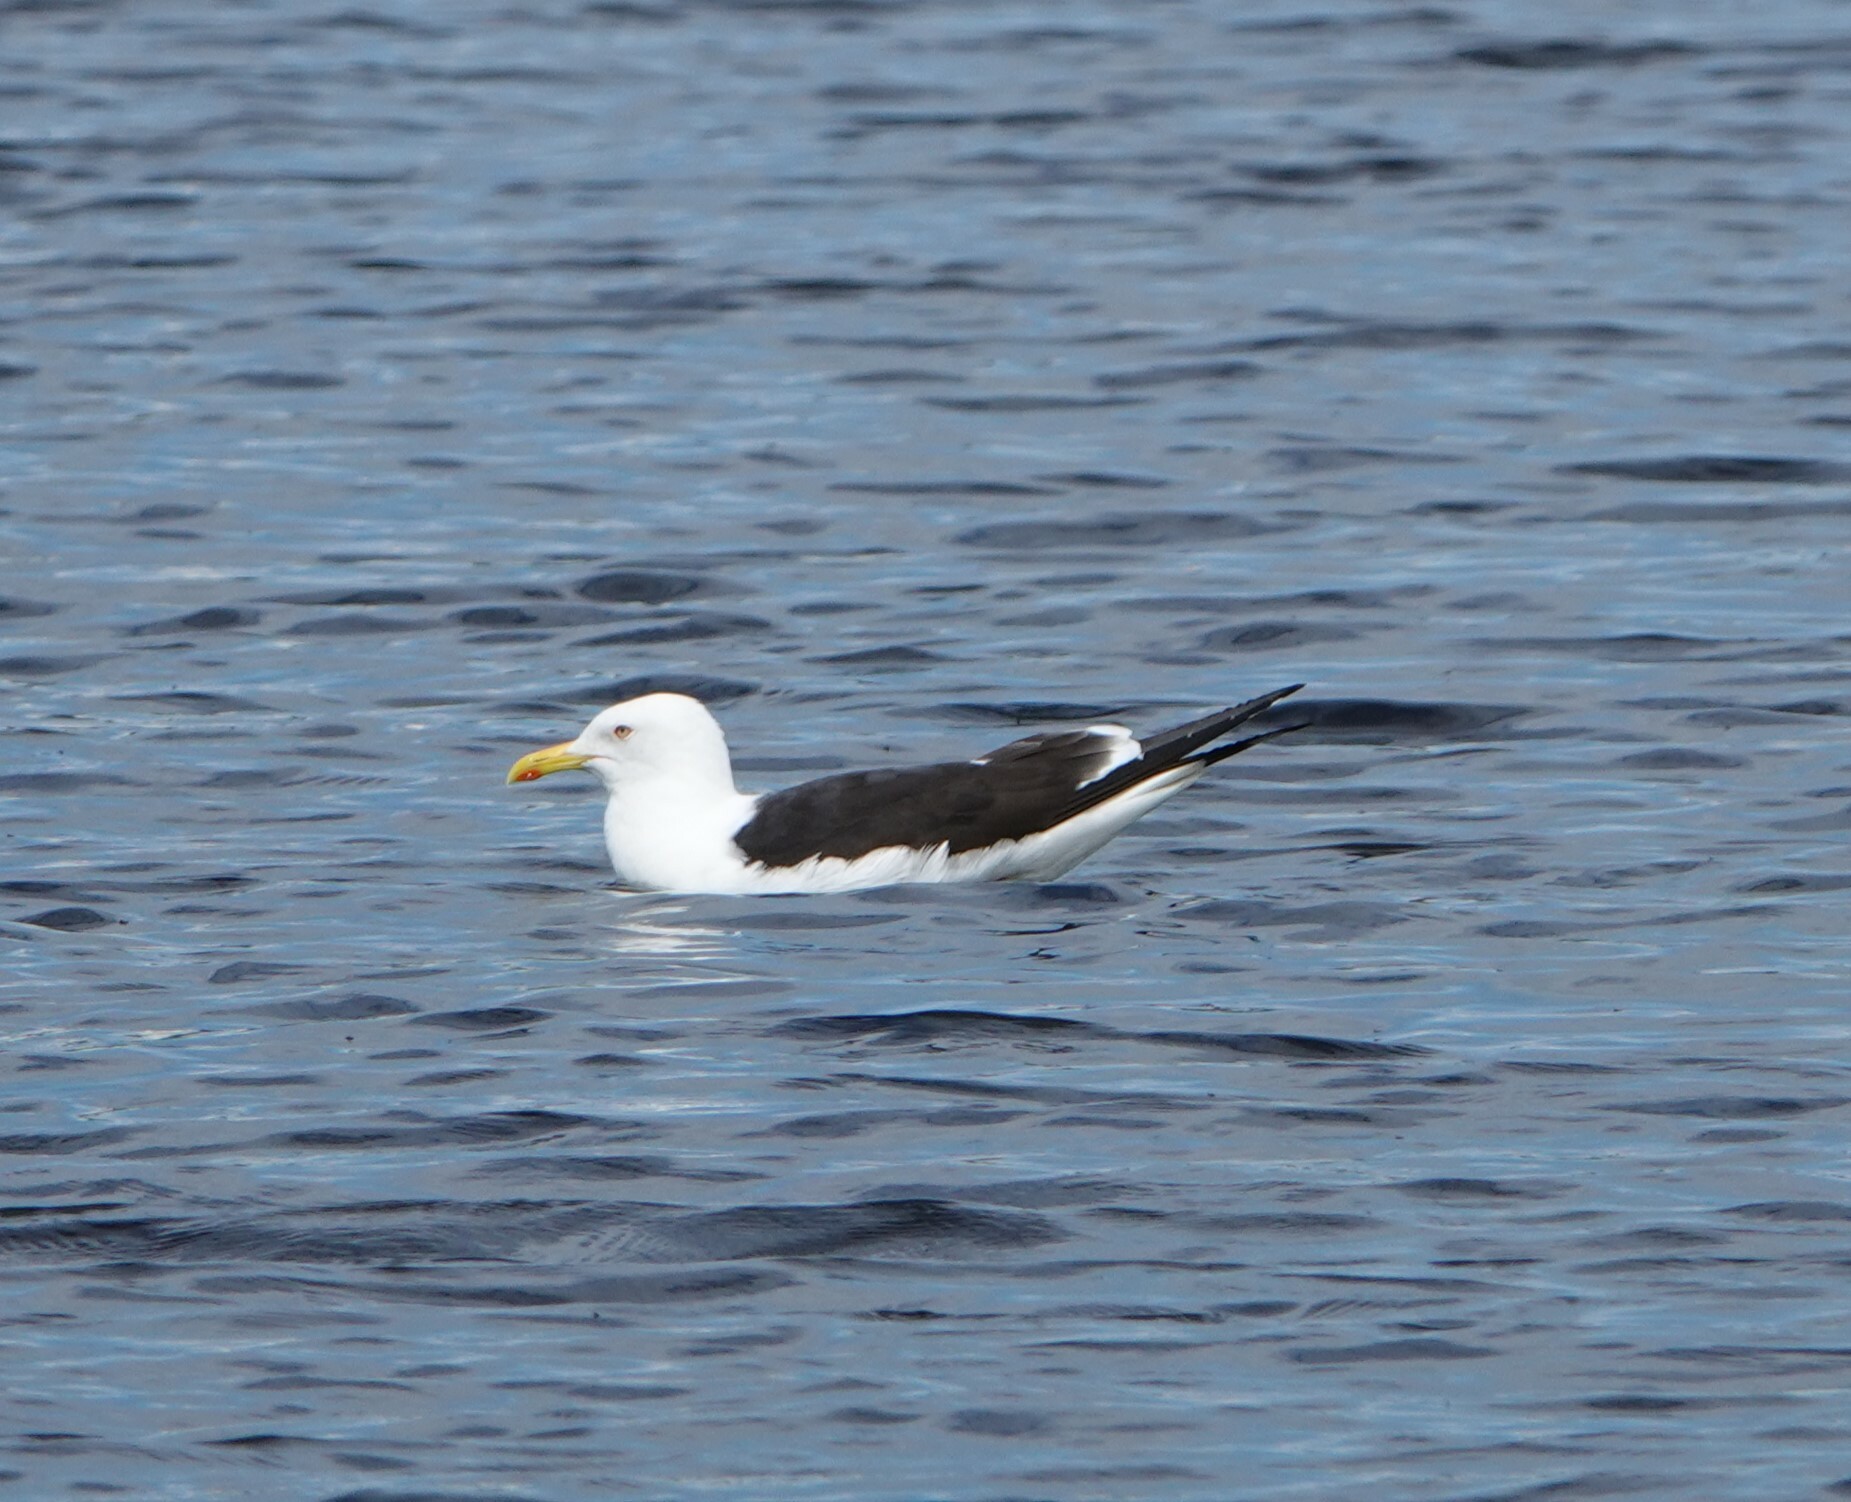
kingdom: Animalia
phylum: Chordata
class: Aves
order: Charadriiformes
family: Laridae
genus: Larus
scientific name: Larus fuscus
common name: Lesser black-backed gull
